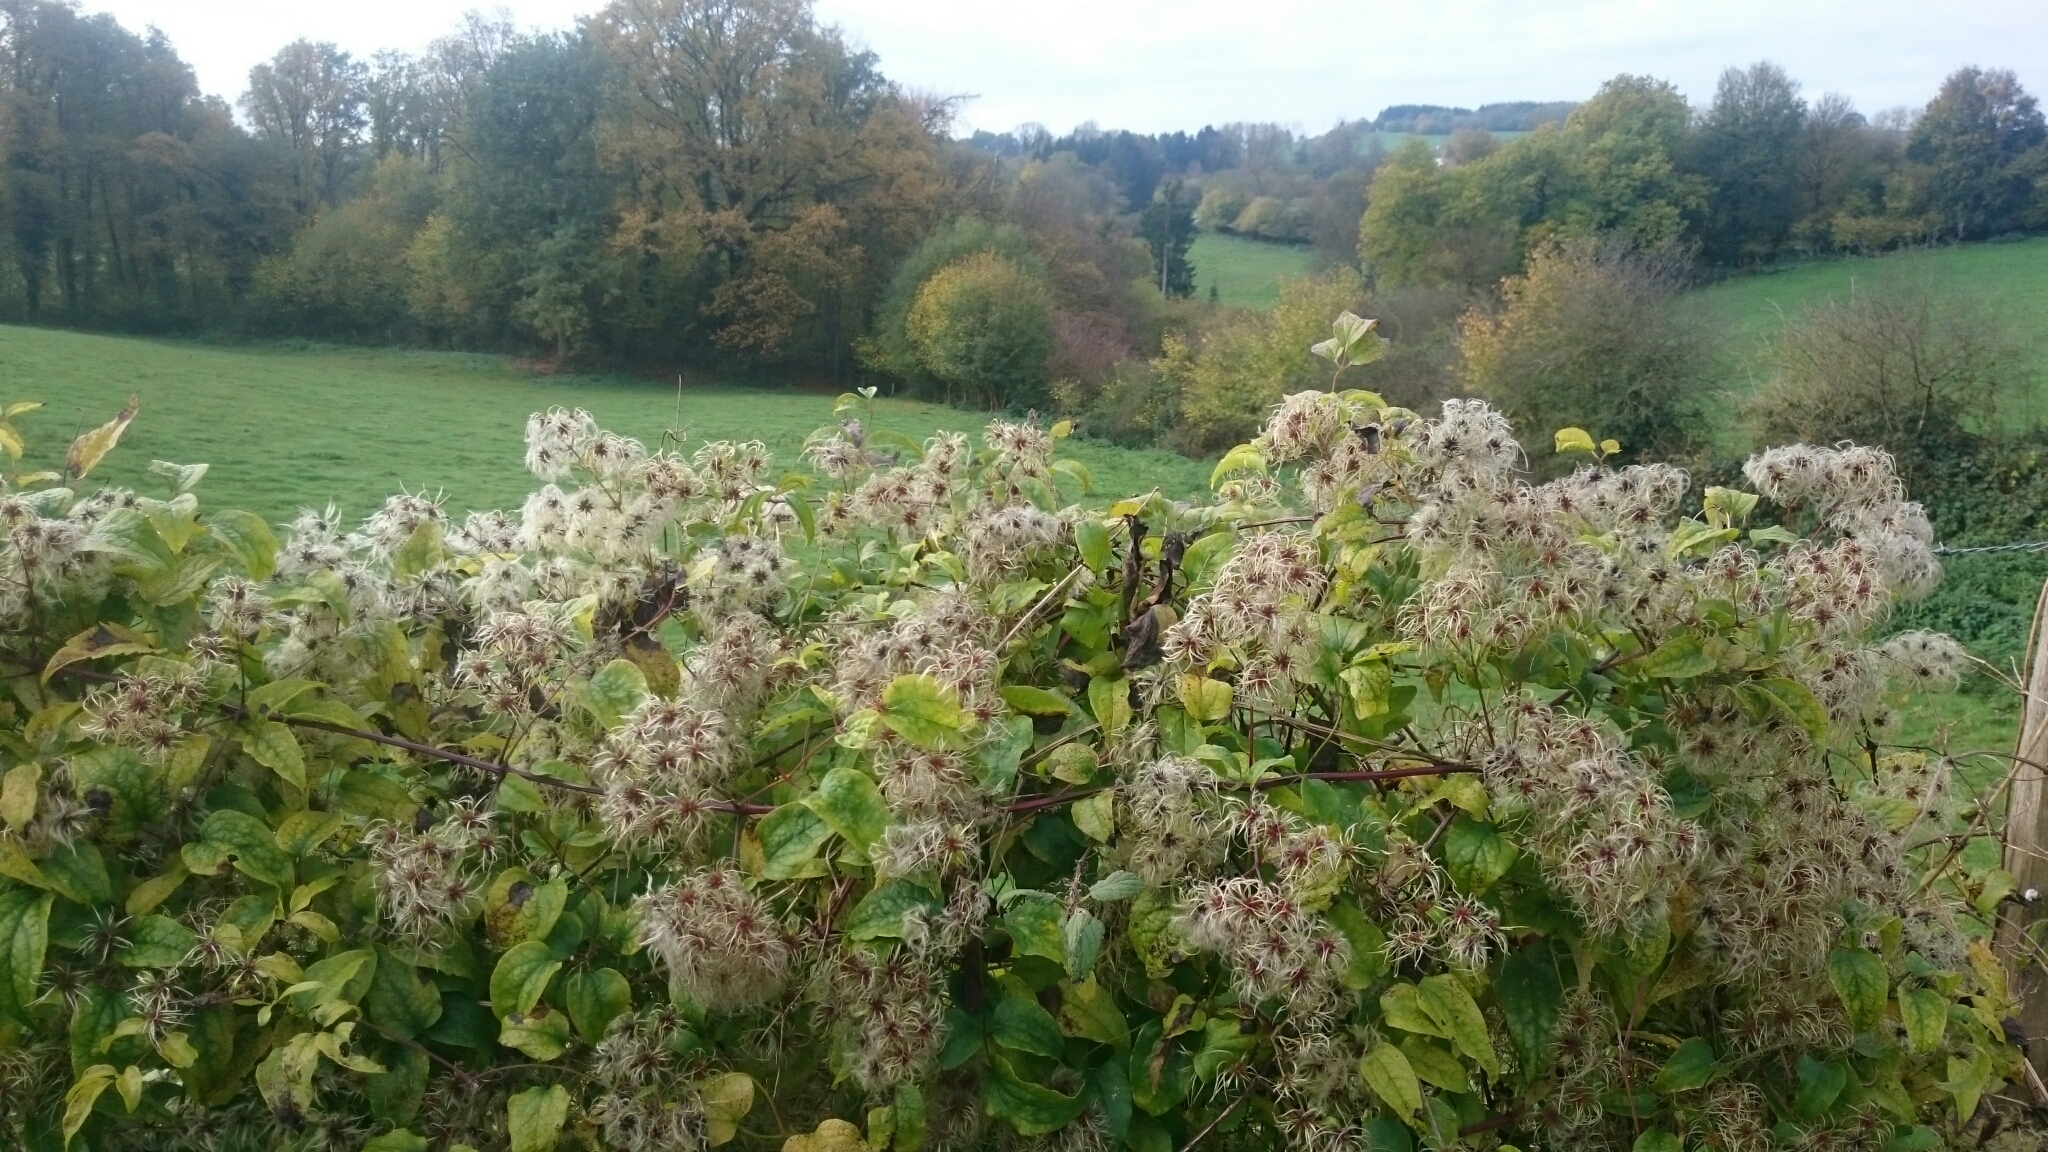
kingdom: Plantae
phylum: Tracheophyta
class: Magnoliopsida
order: Ranunculales
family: Ranunculaceae
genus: Clematis
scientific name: Clematis vitalba
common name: Evergreen clematis
